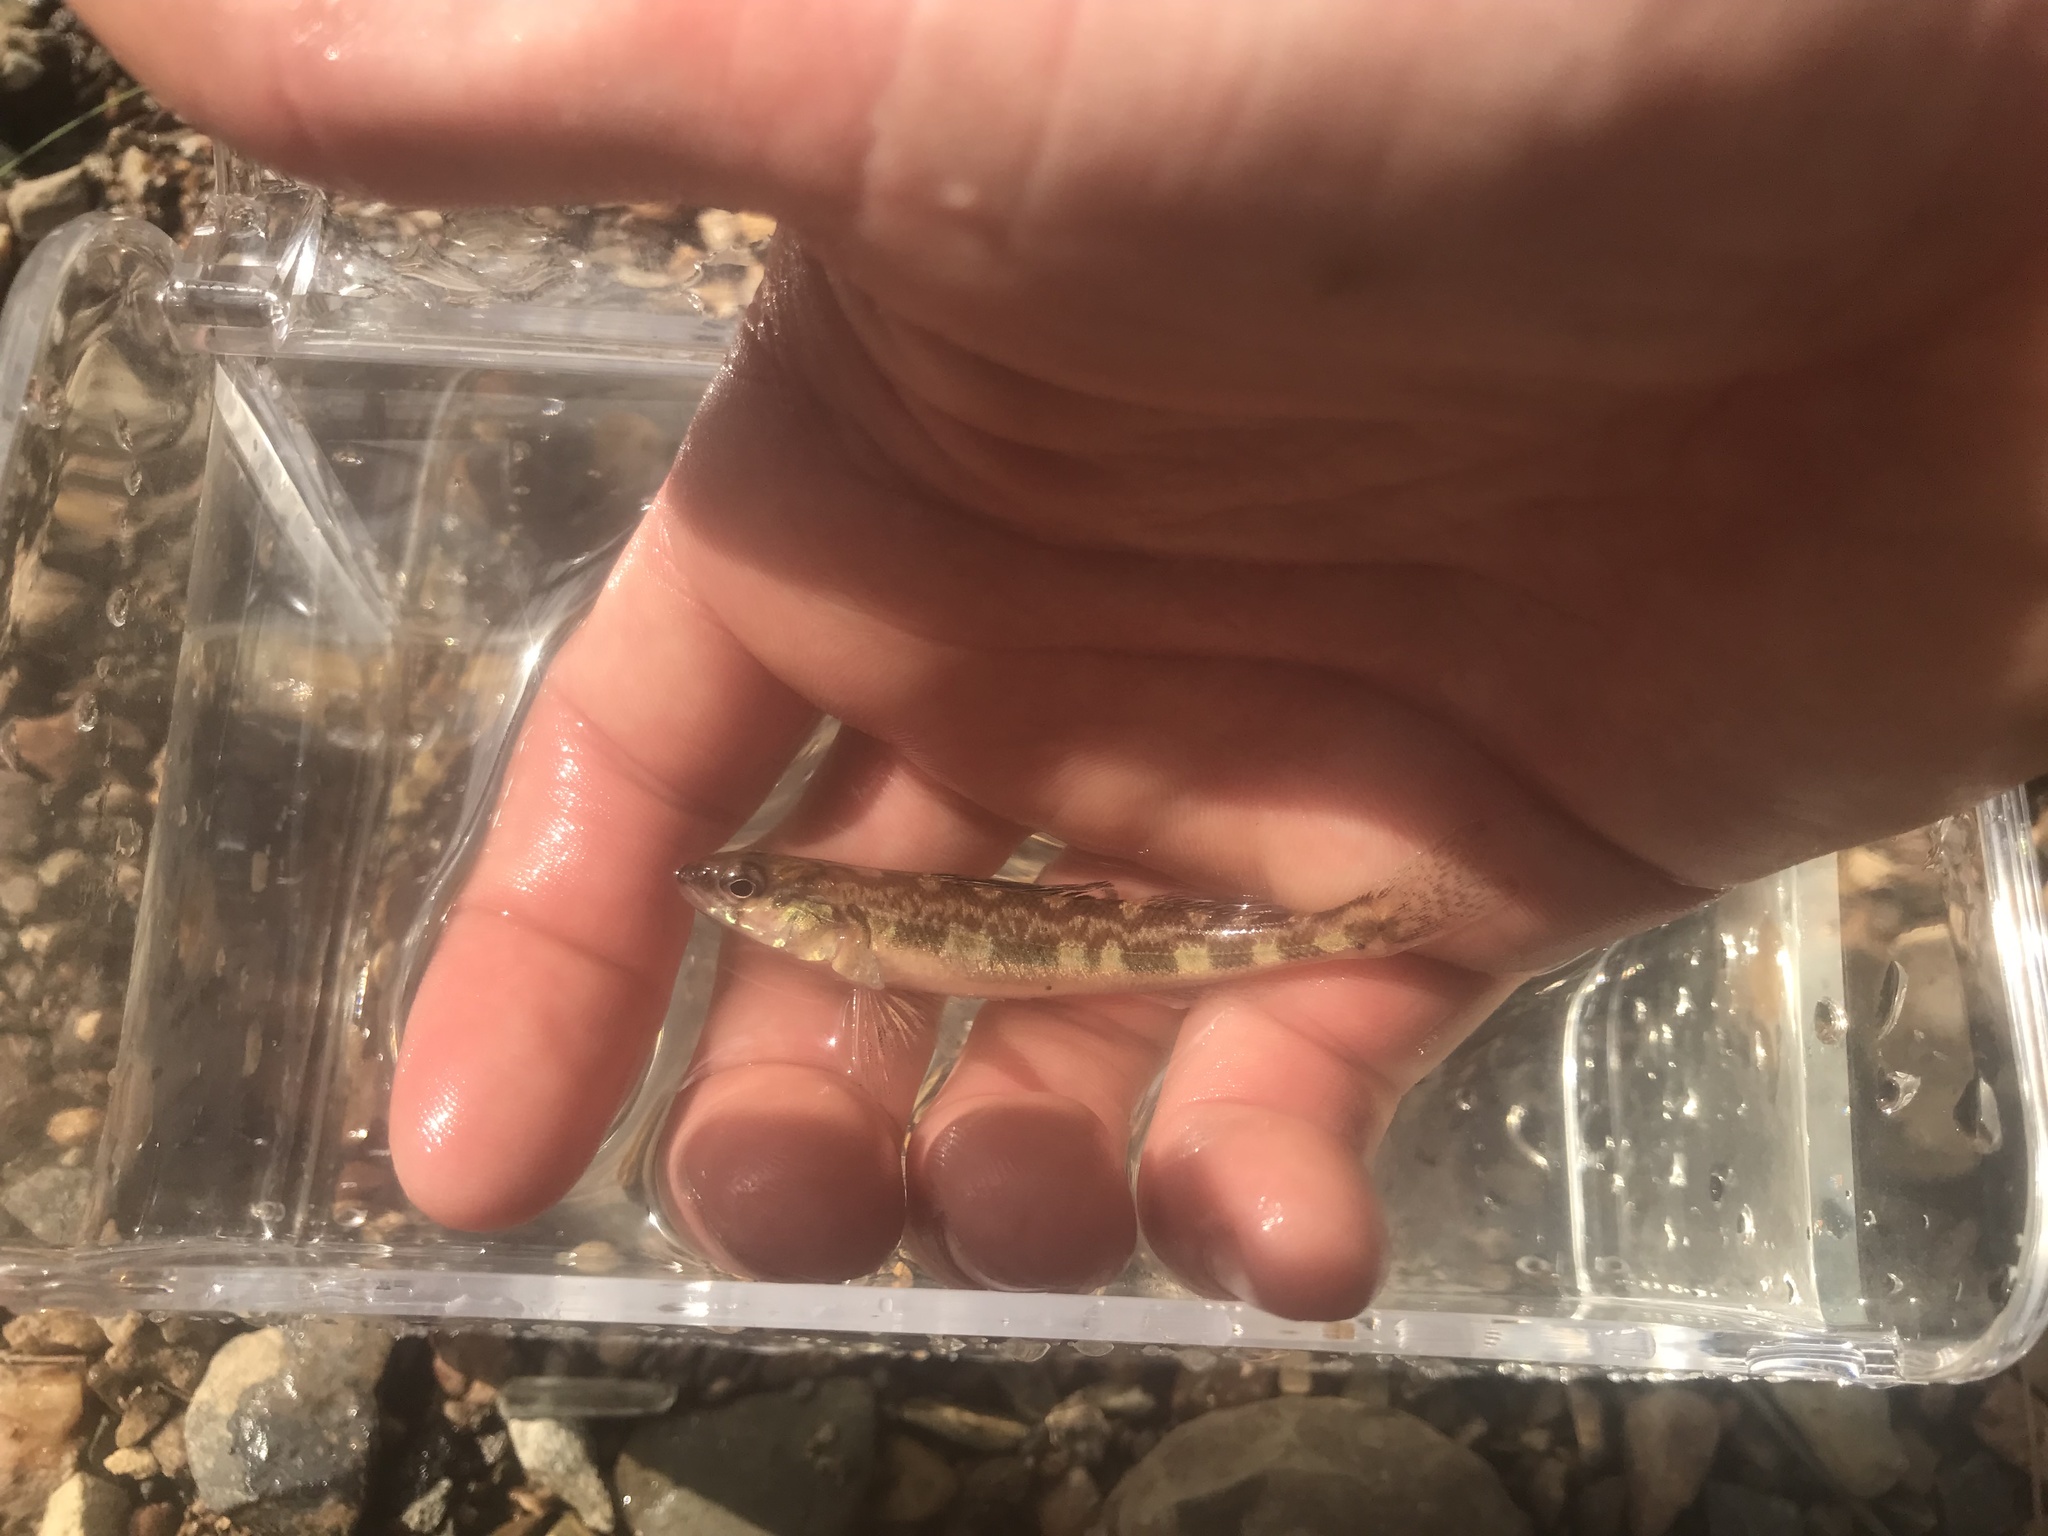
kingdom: Animalia
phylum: Chordata
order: Perciformes
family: Percidae
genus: Percina
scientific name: Percina nevisense
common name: Chainback darter
